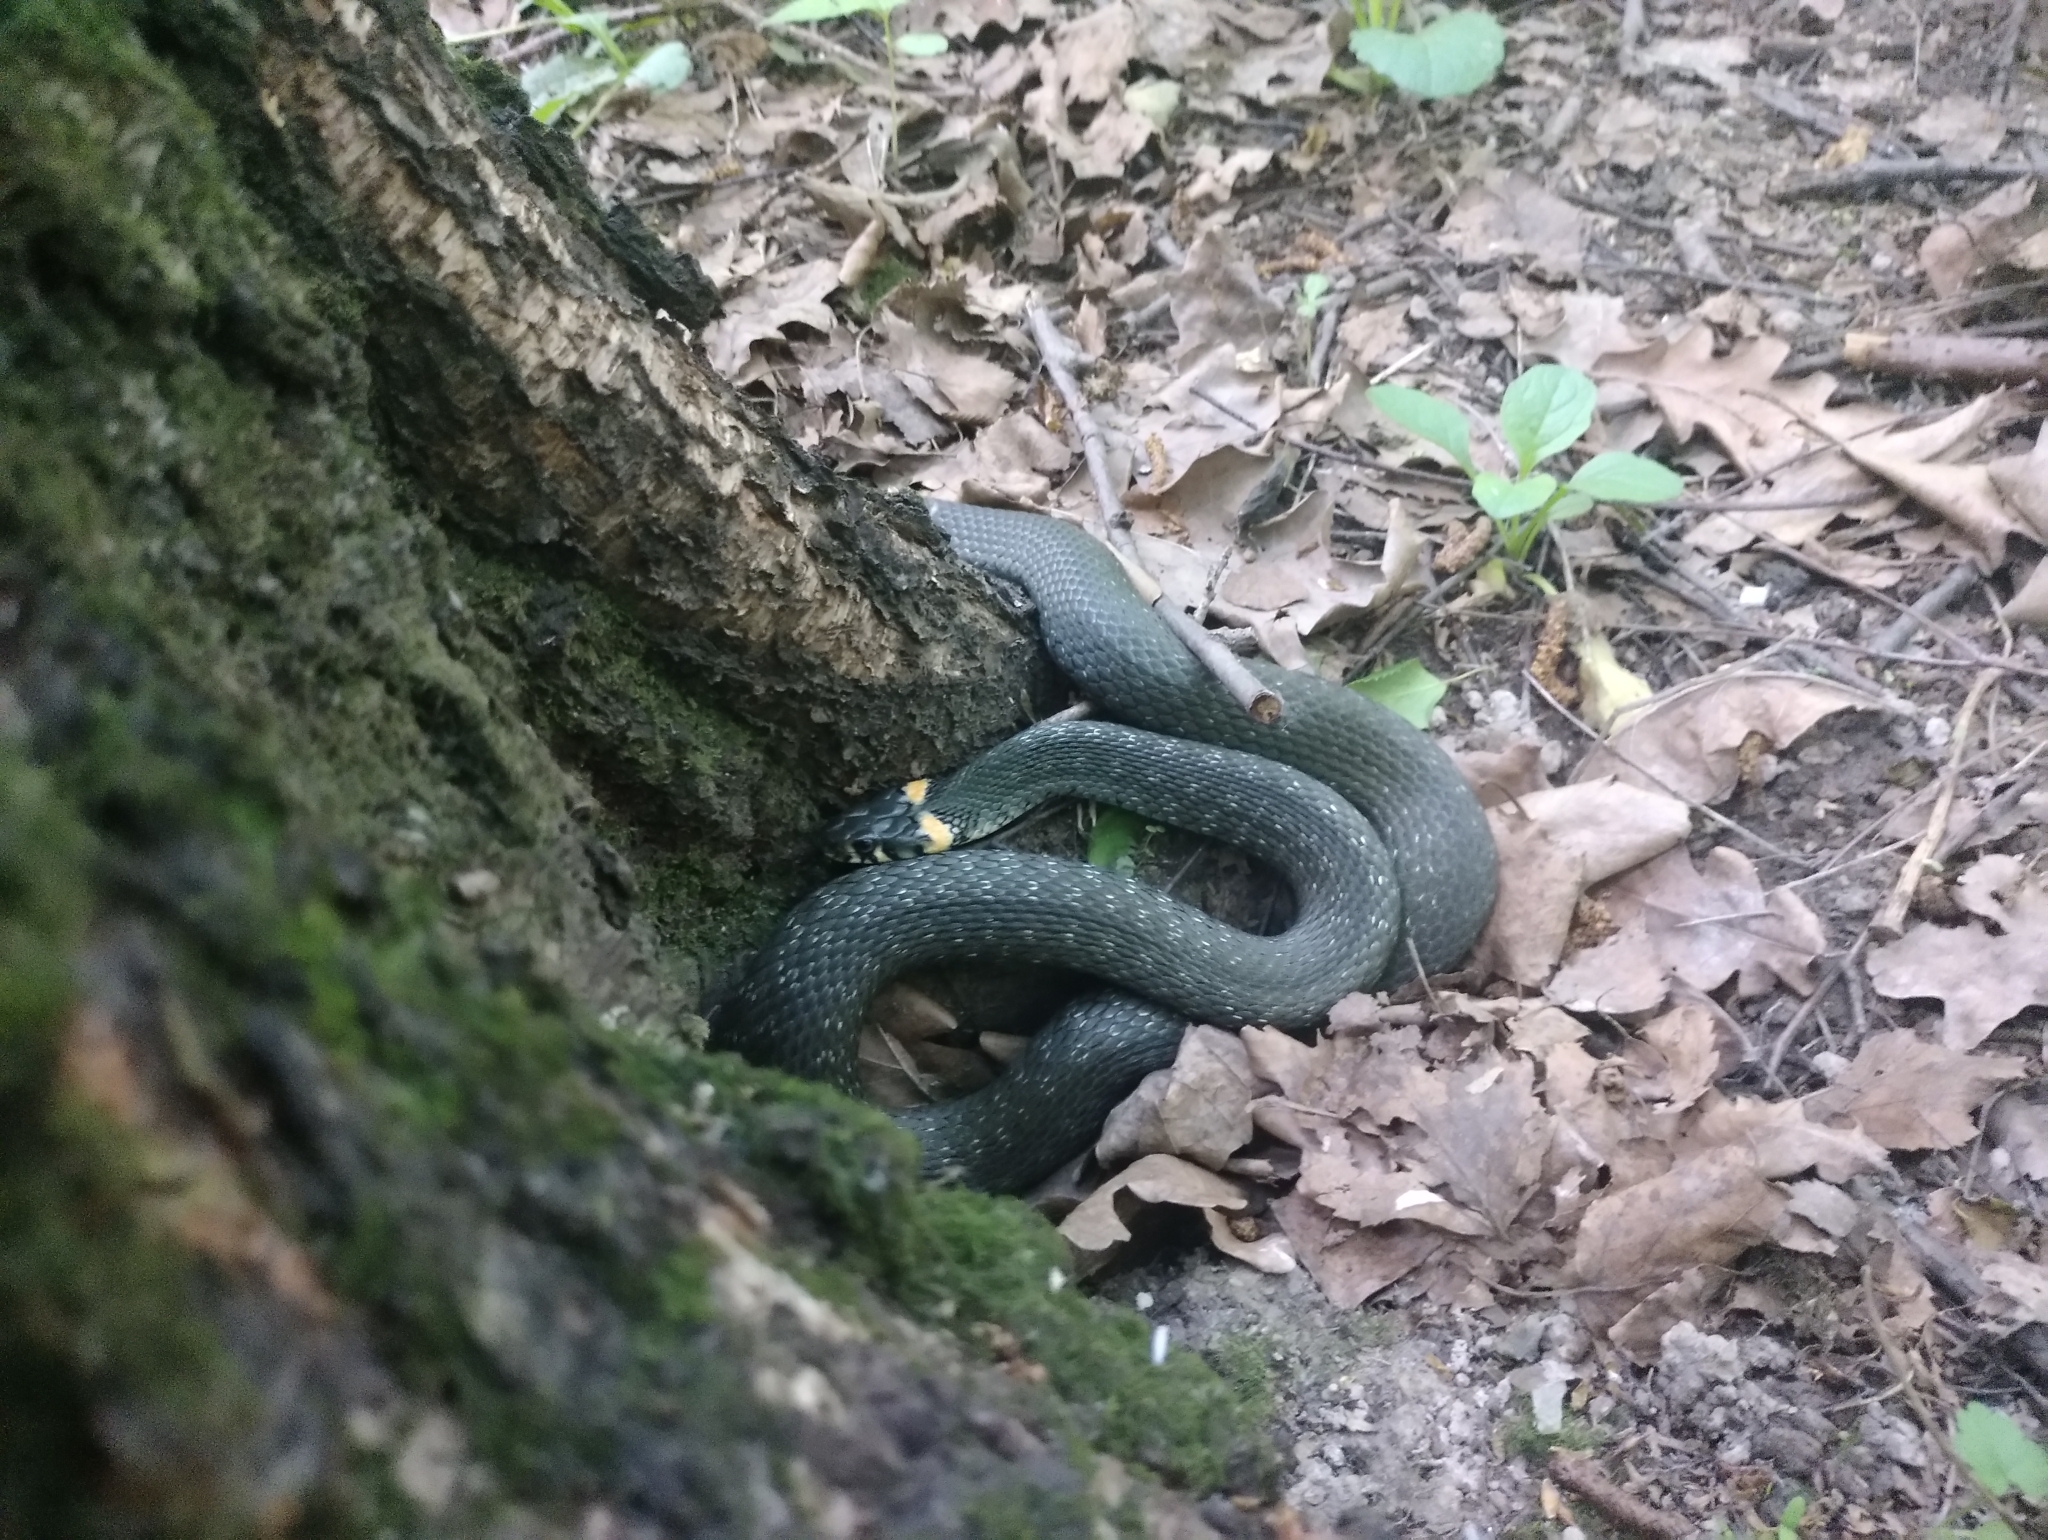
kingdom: Animalia
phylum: Chordata
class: Squamata
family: Colubridae
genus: Natrix
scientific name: Natrix natrix
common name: Grass snake
